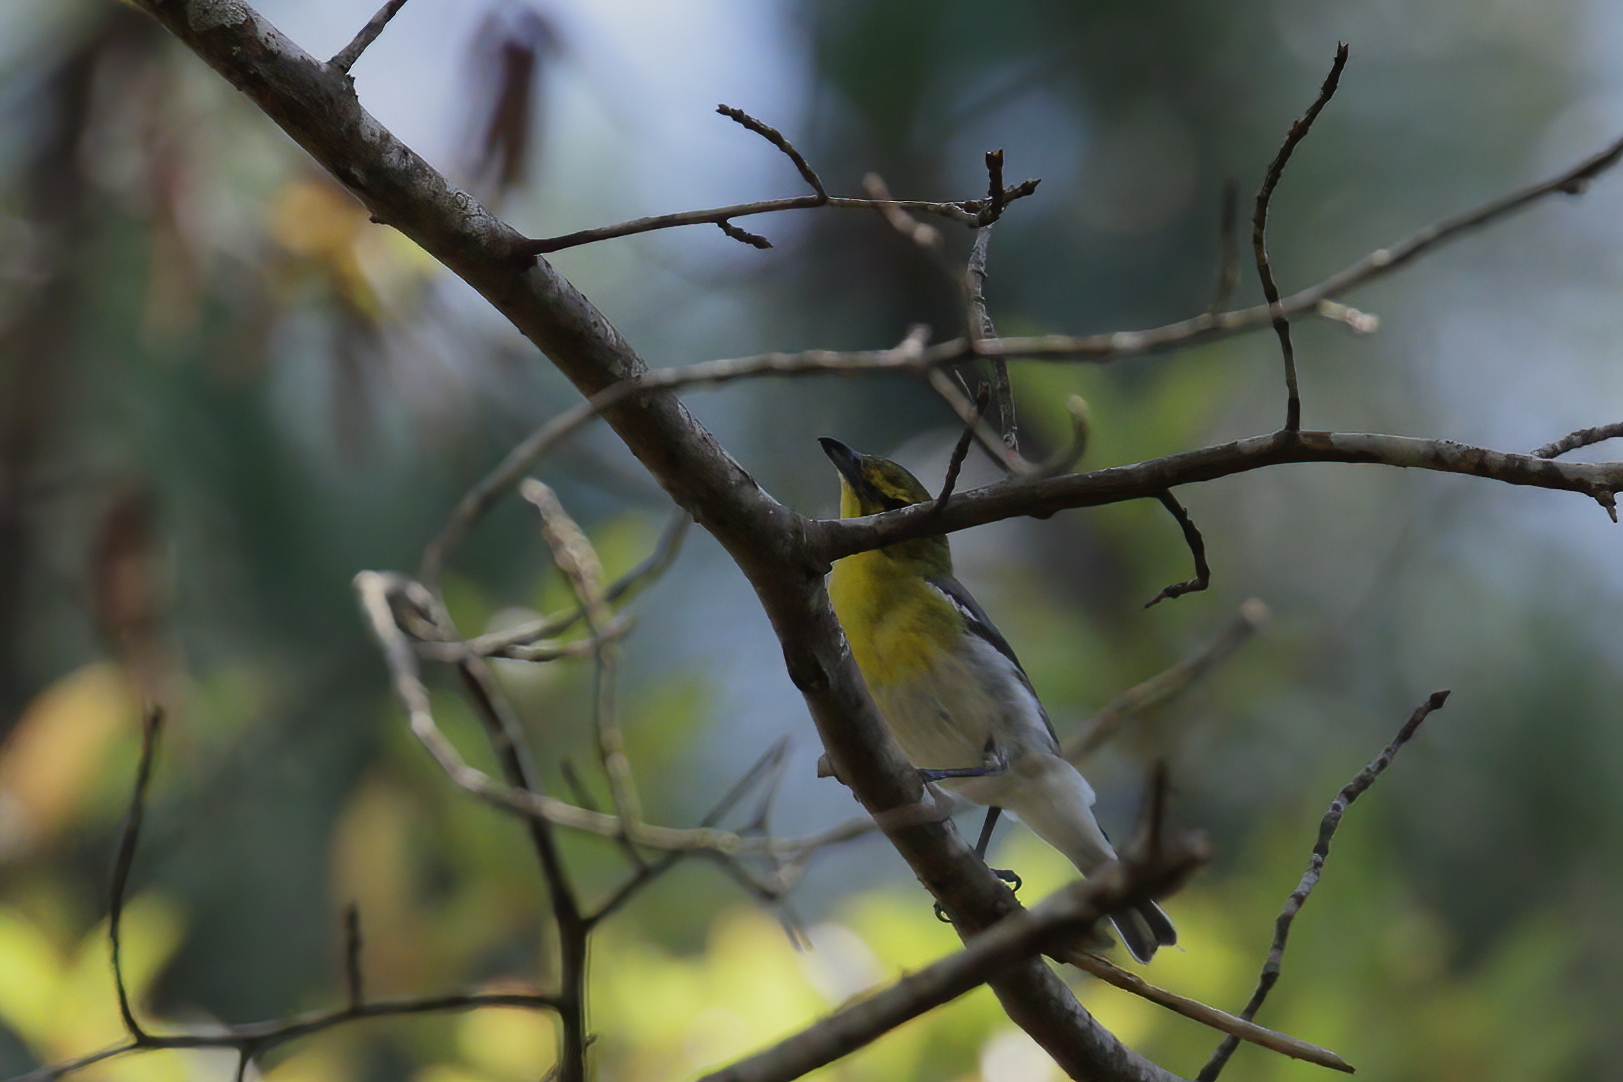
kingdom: Animalia
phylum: Chordata
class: Aves
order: Passeriformes
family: Vireonidae
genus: Vireo
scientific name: Vireo flavifrons
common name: Yellow-throated vireo
